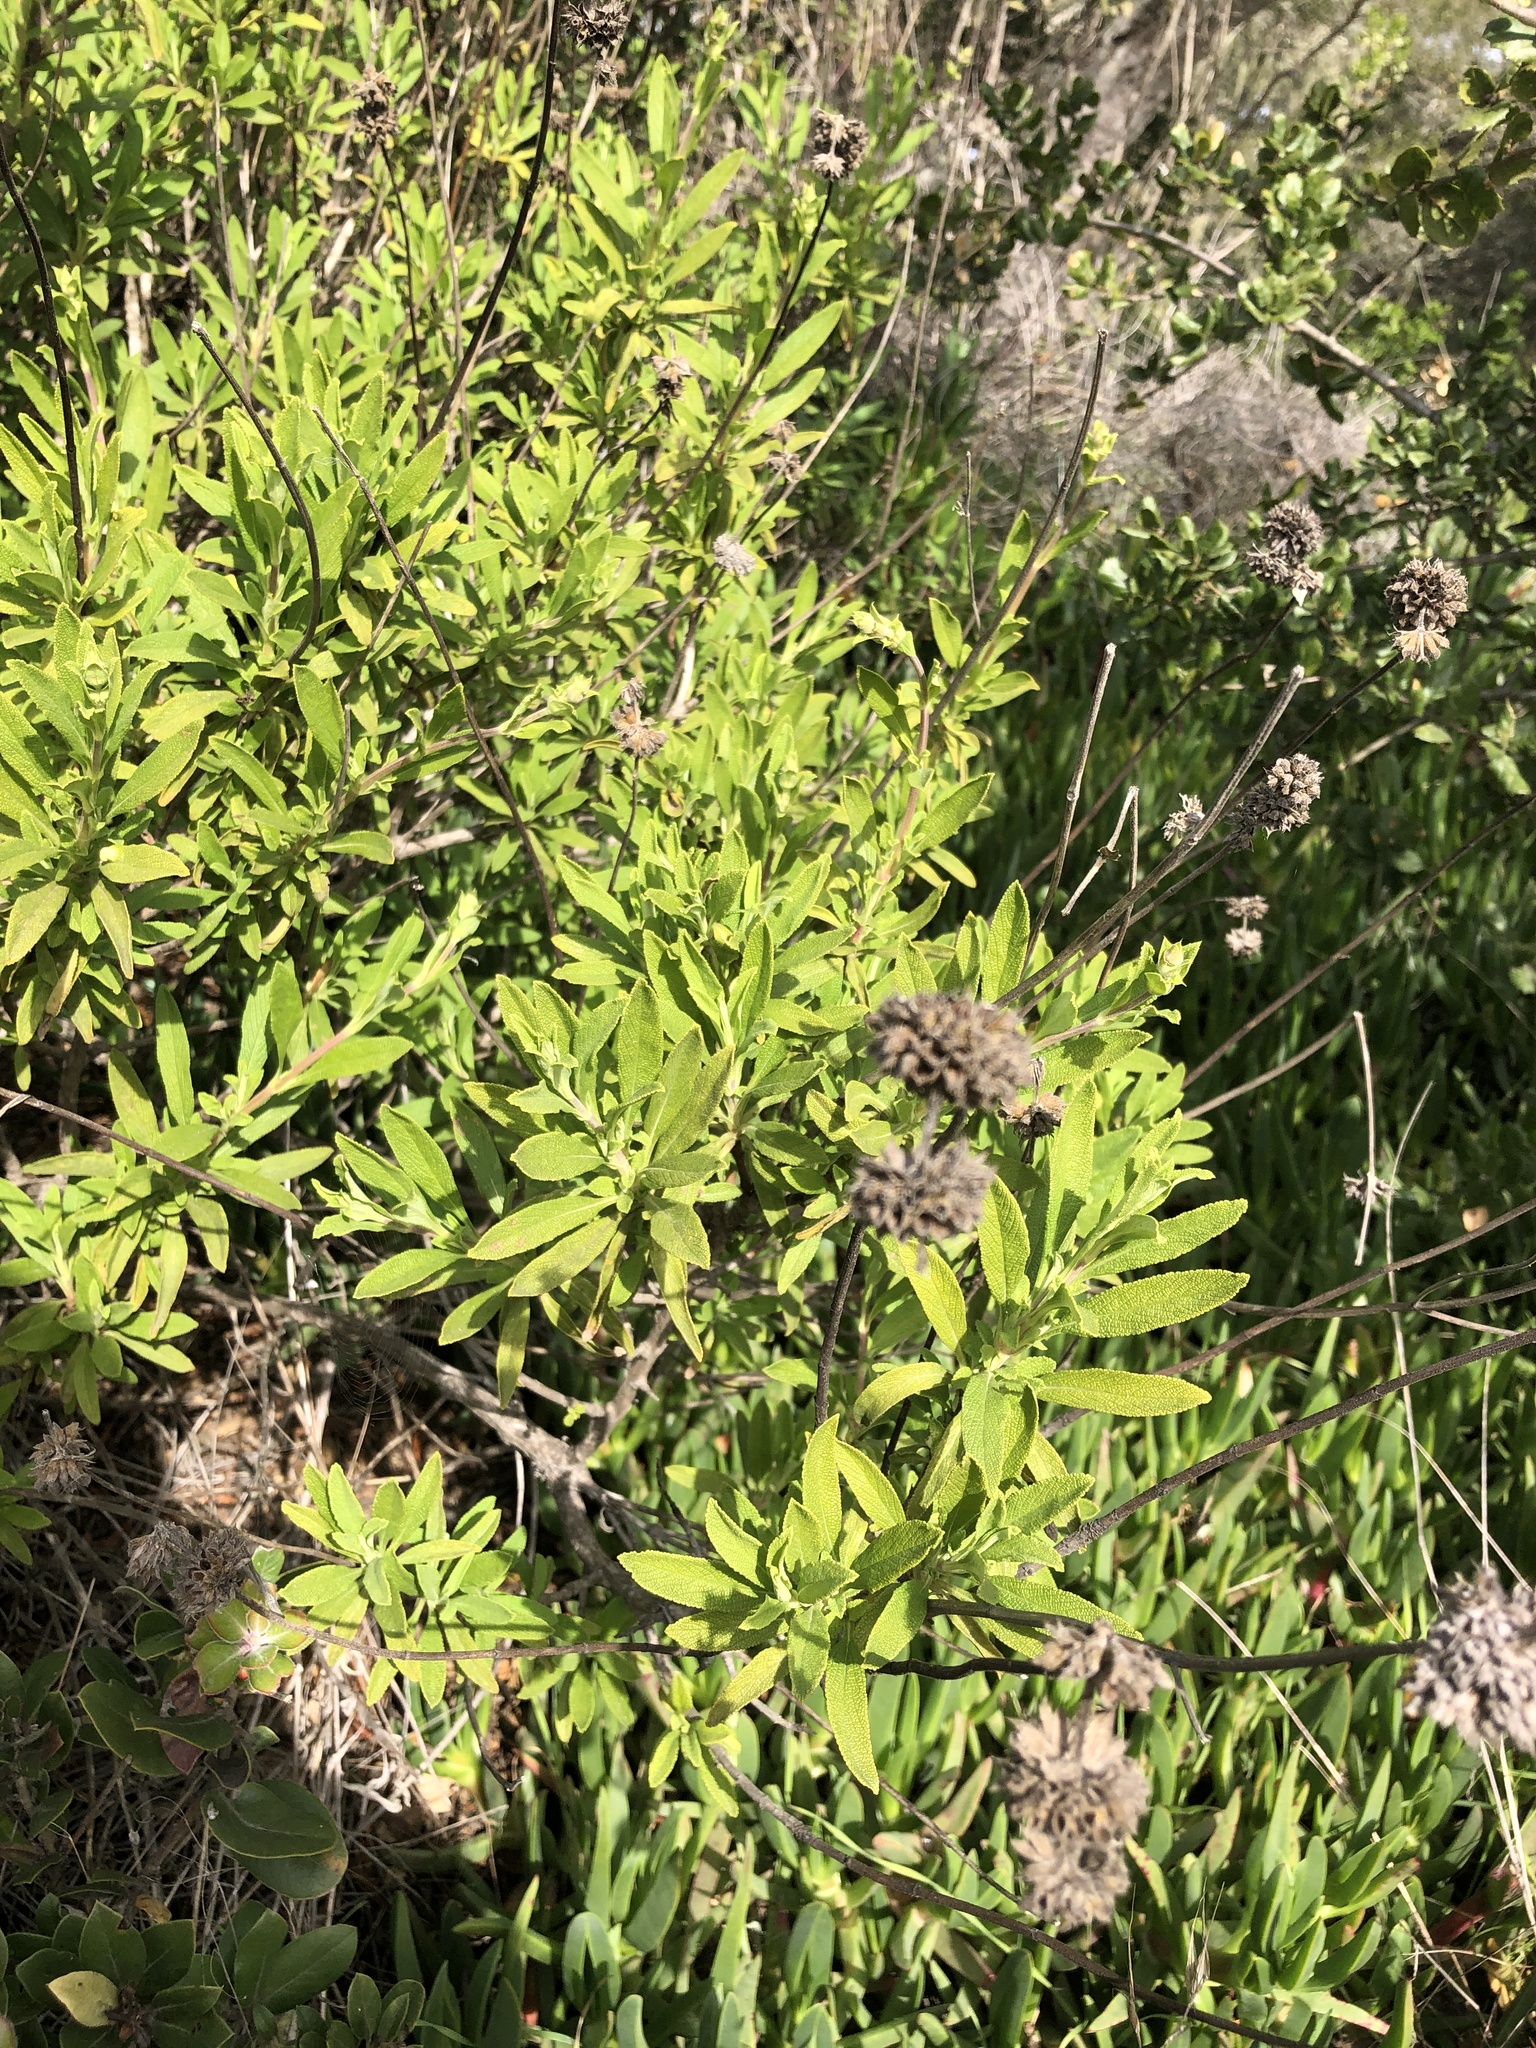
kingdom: Plantae
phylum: Tracheophyta
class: Magnoliopsida
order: Lamiales
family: Lamiaceae
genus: Salvia
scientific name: Salvia mellifera
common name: Black sage
